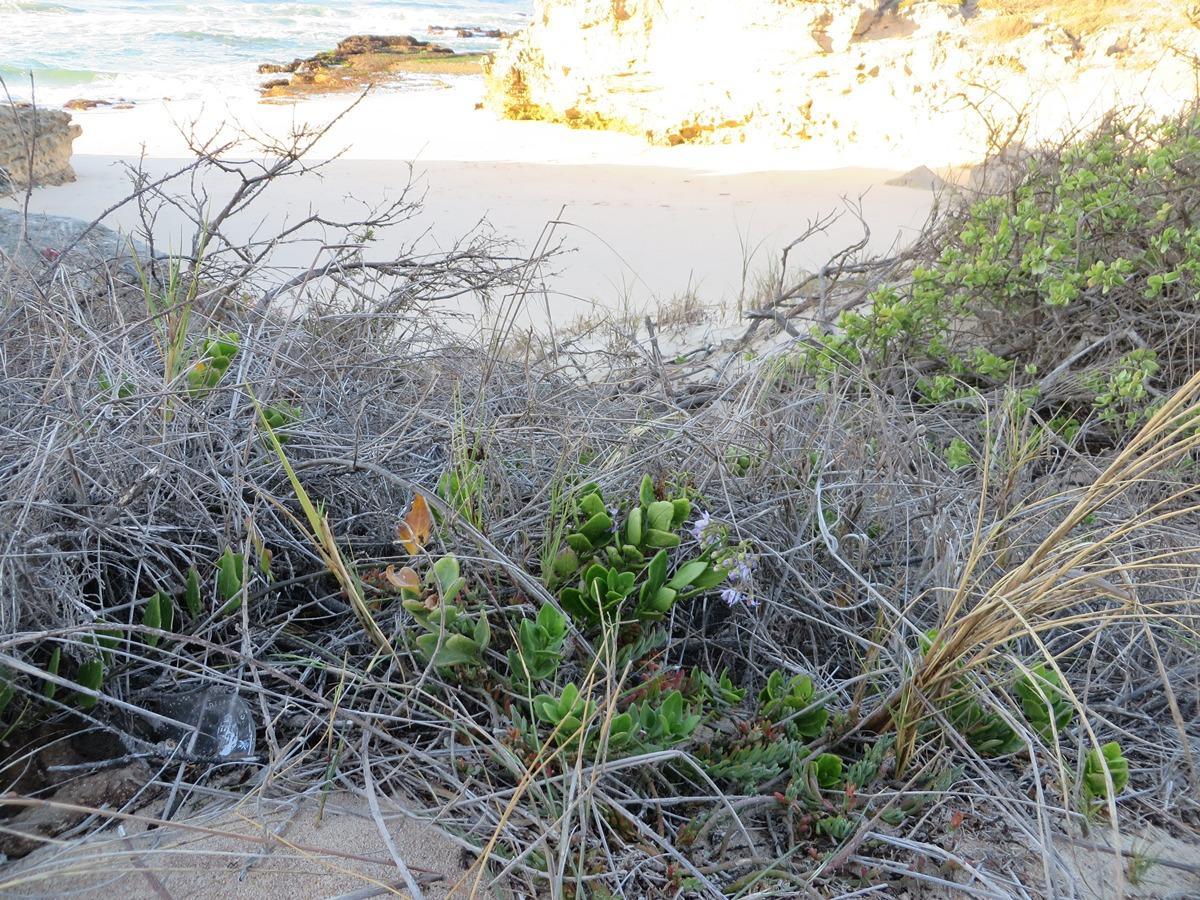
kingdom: Plantae
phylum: Tracheophyta
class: Magnoliopsida
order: Solanales
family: Solanaceae
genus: Solanum
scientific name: Solanum africanum
